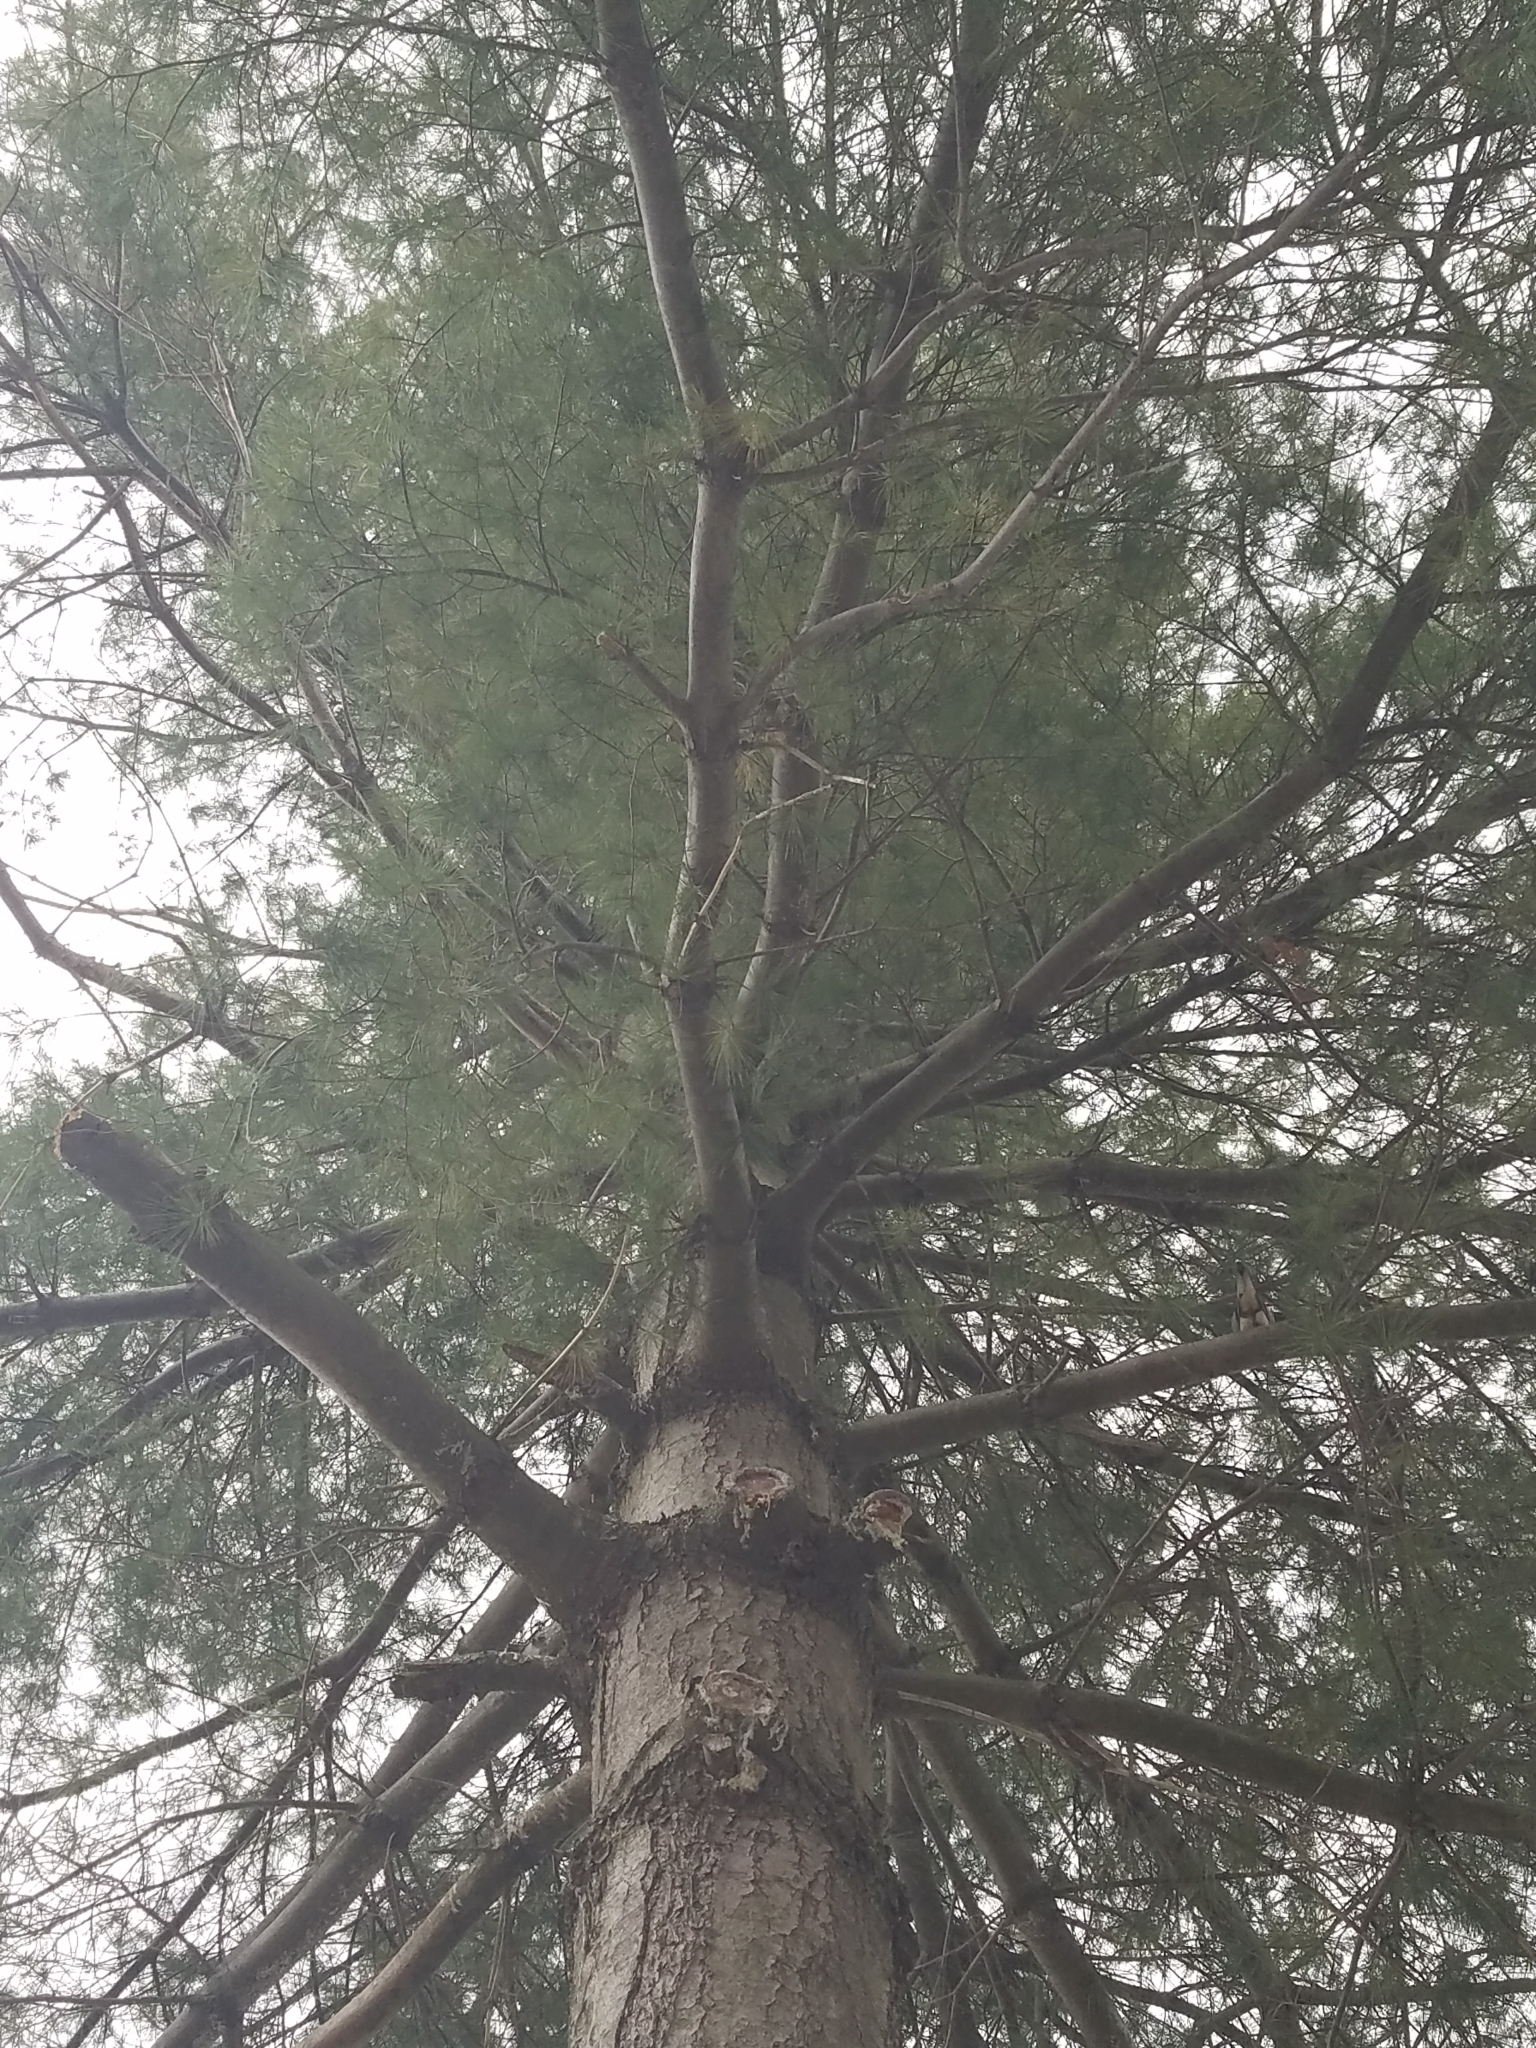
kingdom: Plantae
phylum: Tracheophyta
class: Pinopsida
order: Pinales
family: Pinaceae
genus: Pinus
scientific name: Pinus strobus
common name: Weymouth pine
